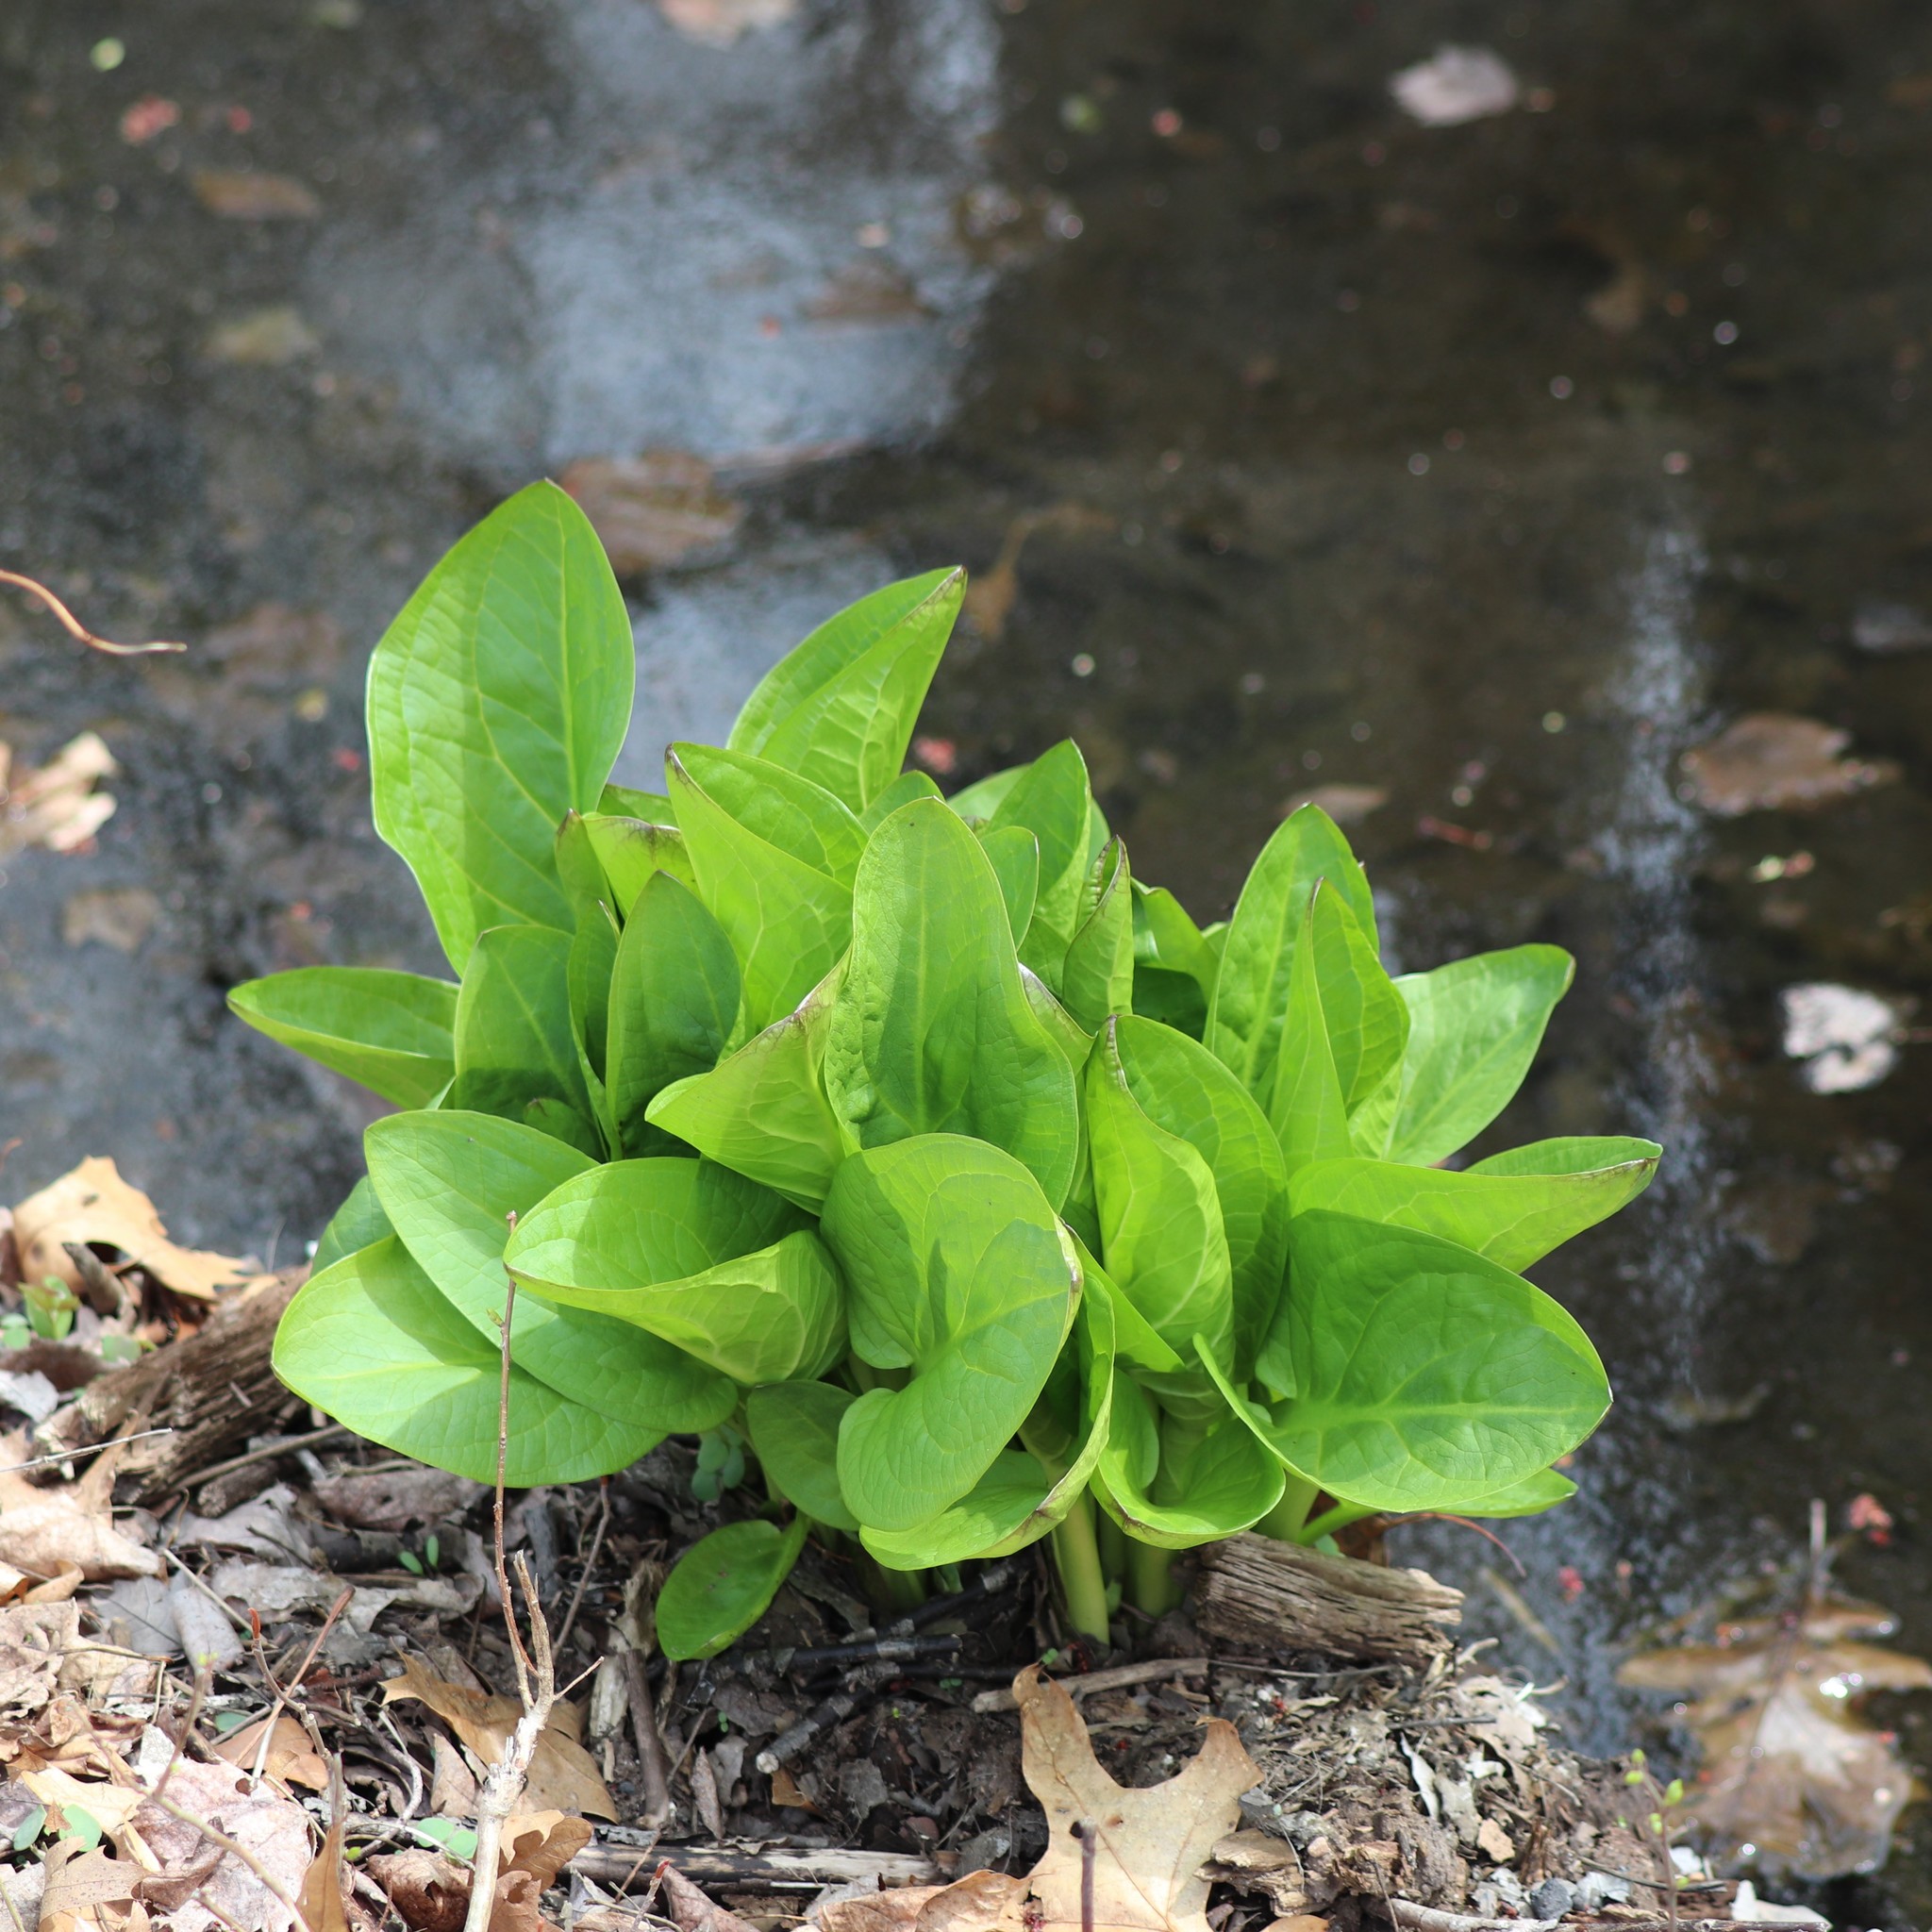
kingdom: Plantae
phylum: Tracheophyta
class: Liliopsida
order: Alismatales
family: Araceae
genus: Symplocarpus
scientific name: Symplocarpus foetidus
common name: Eastern skunk cabbage
